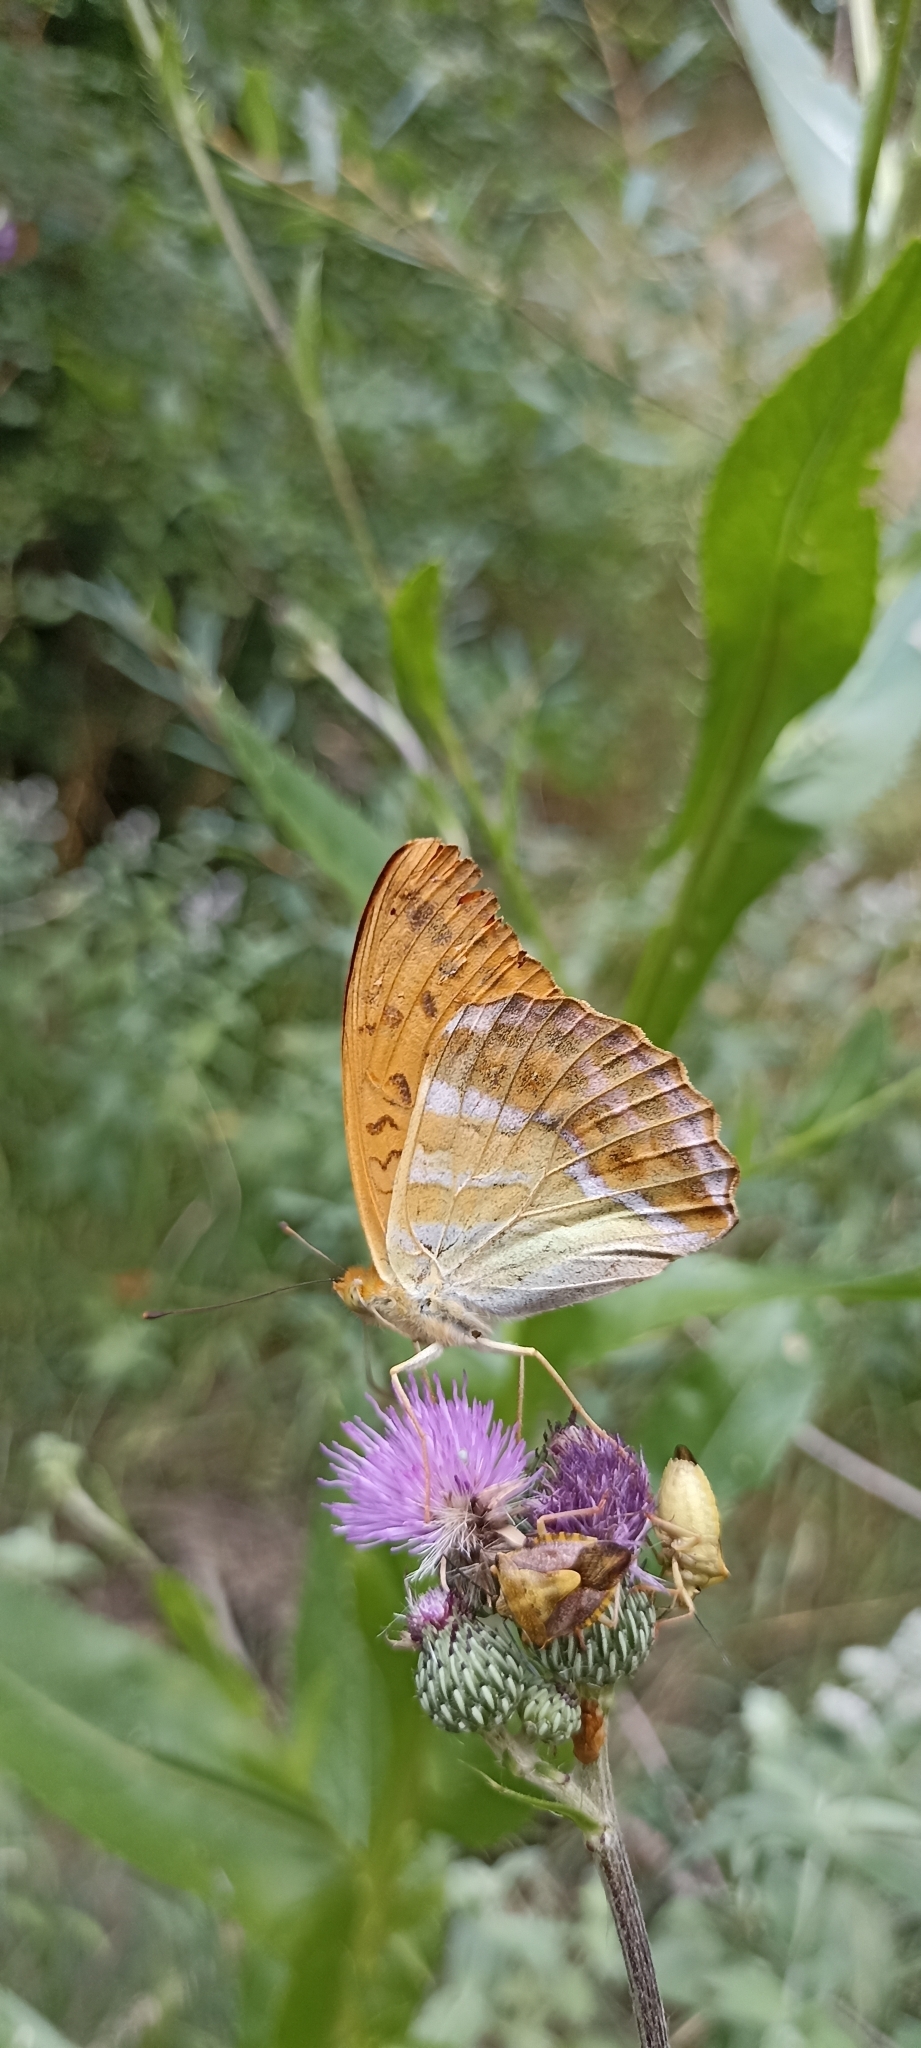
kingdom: Animalia
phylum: Arthropoda
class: Insecta
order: Lepidoptera
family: Nymphalidae
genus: Argynnis
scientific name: Argynnis paphia
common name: Silver-washed fritillary
